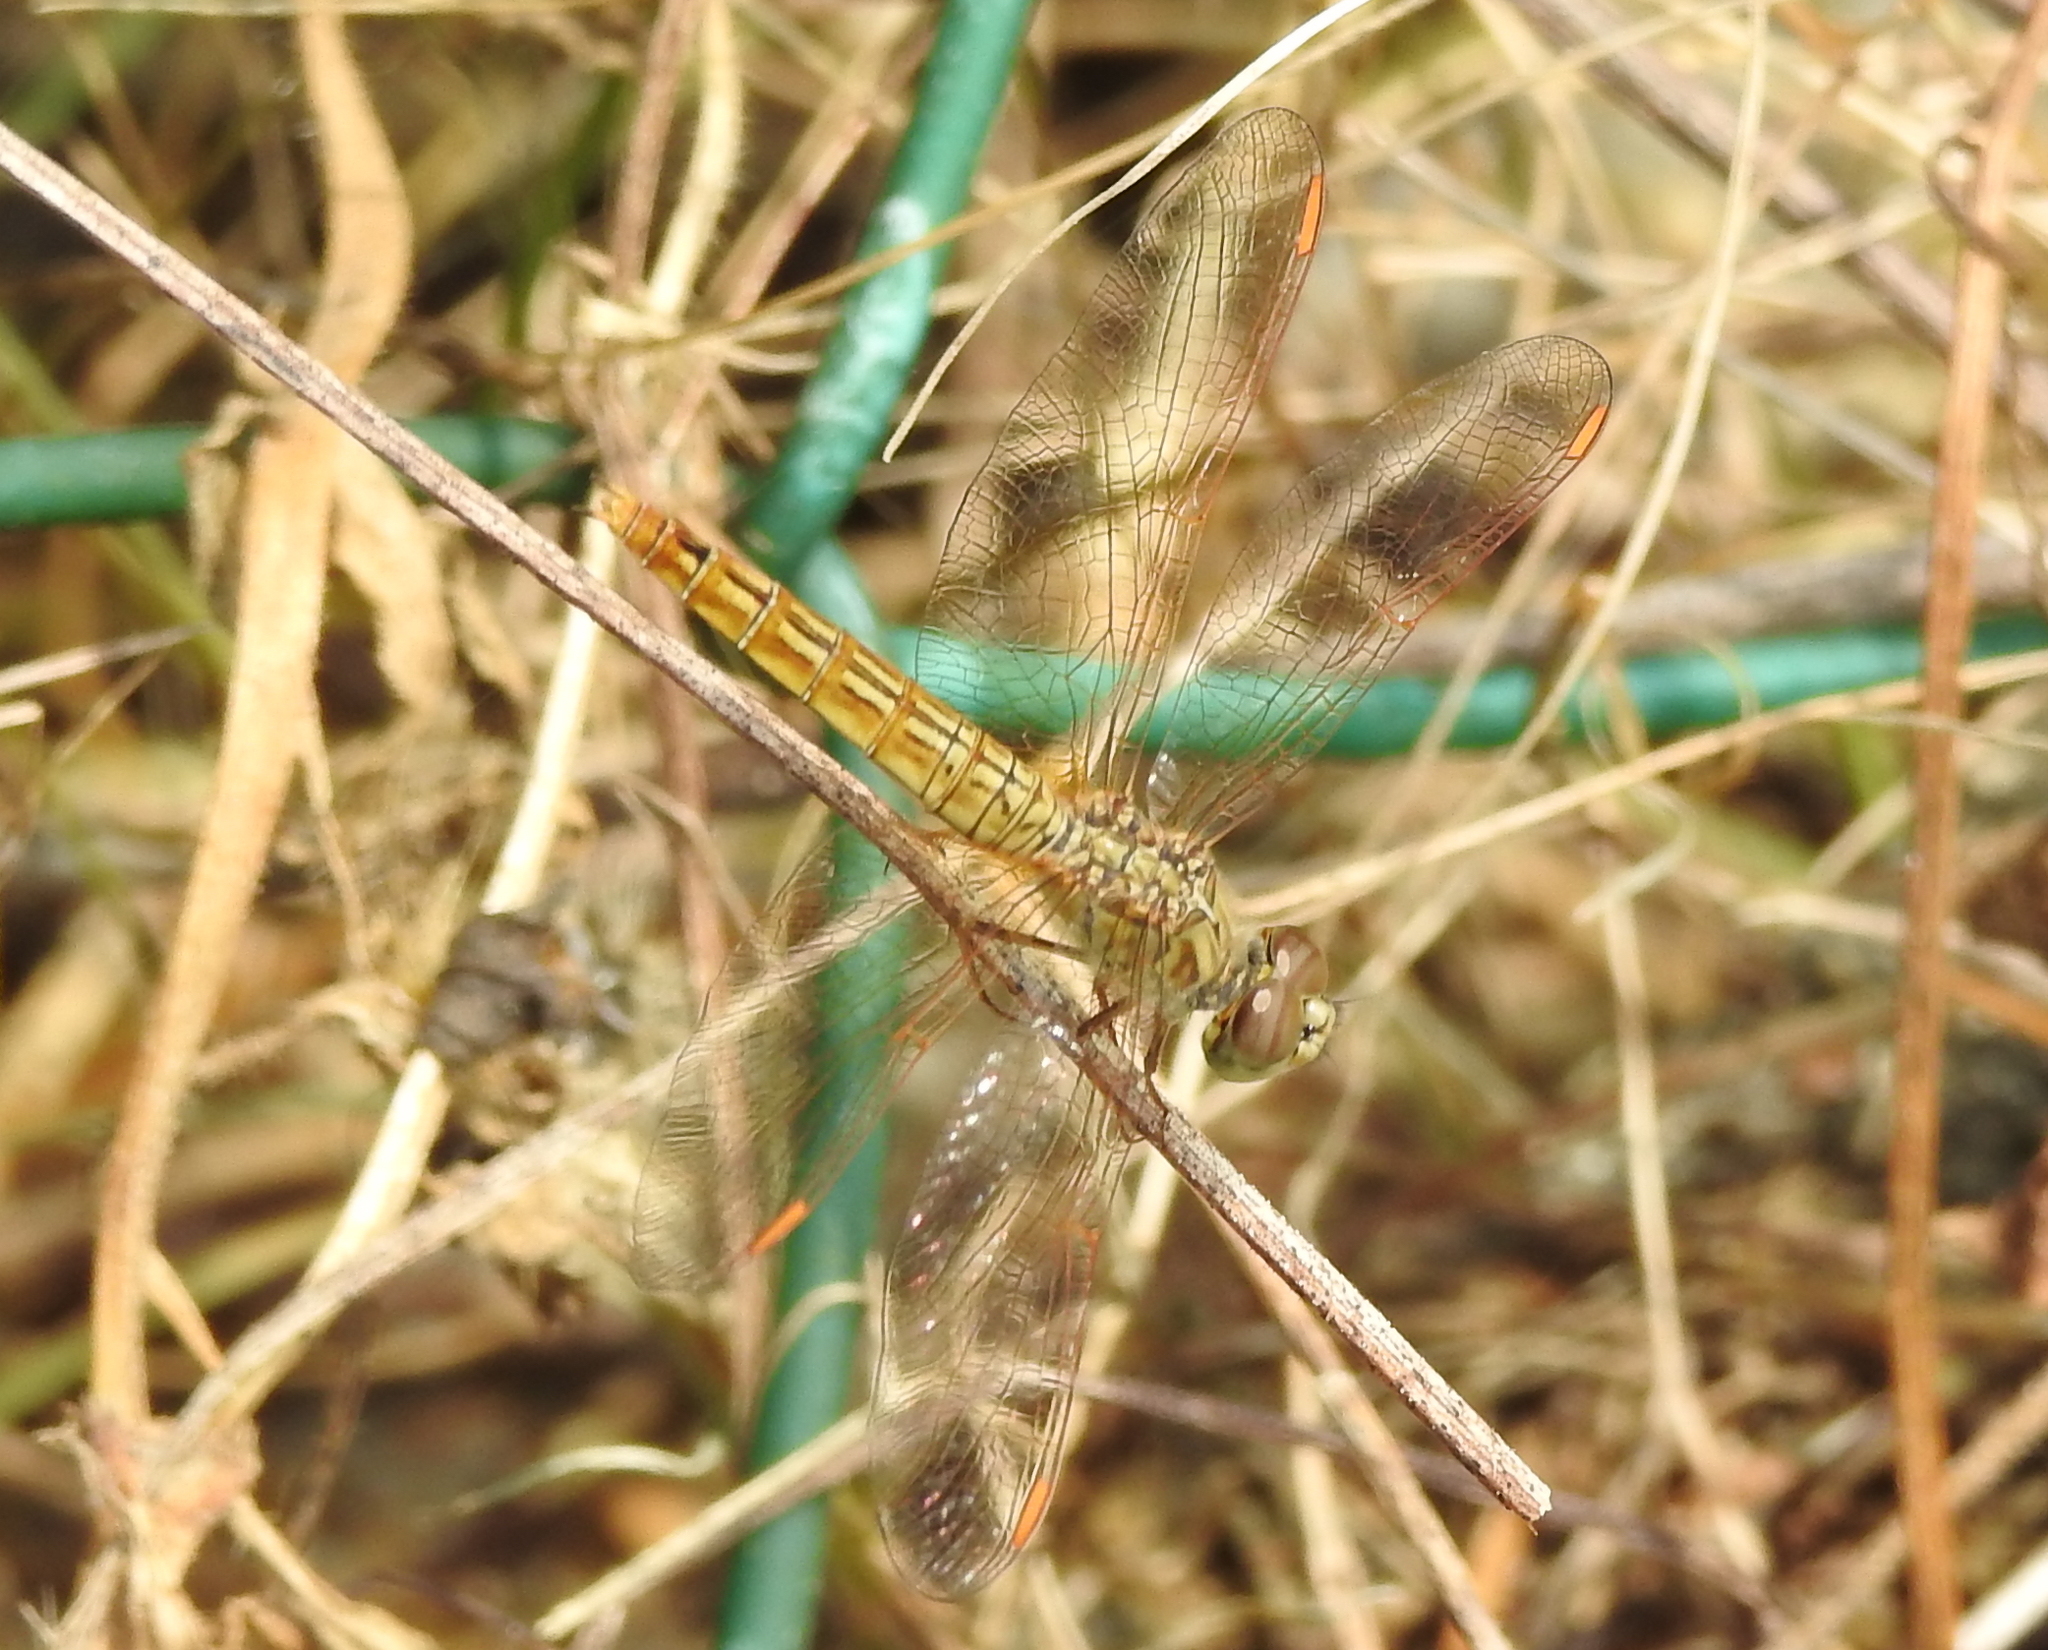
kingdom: Animalia
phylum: Arthropoda
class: Insecta
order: Odonata
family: Libellulidae
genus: Brachythemis
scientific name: Brachythemis contaminata
